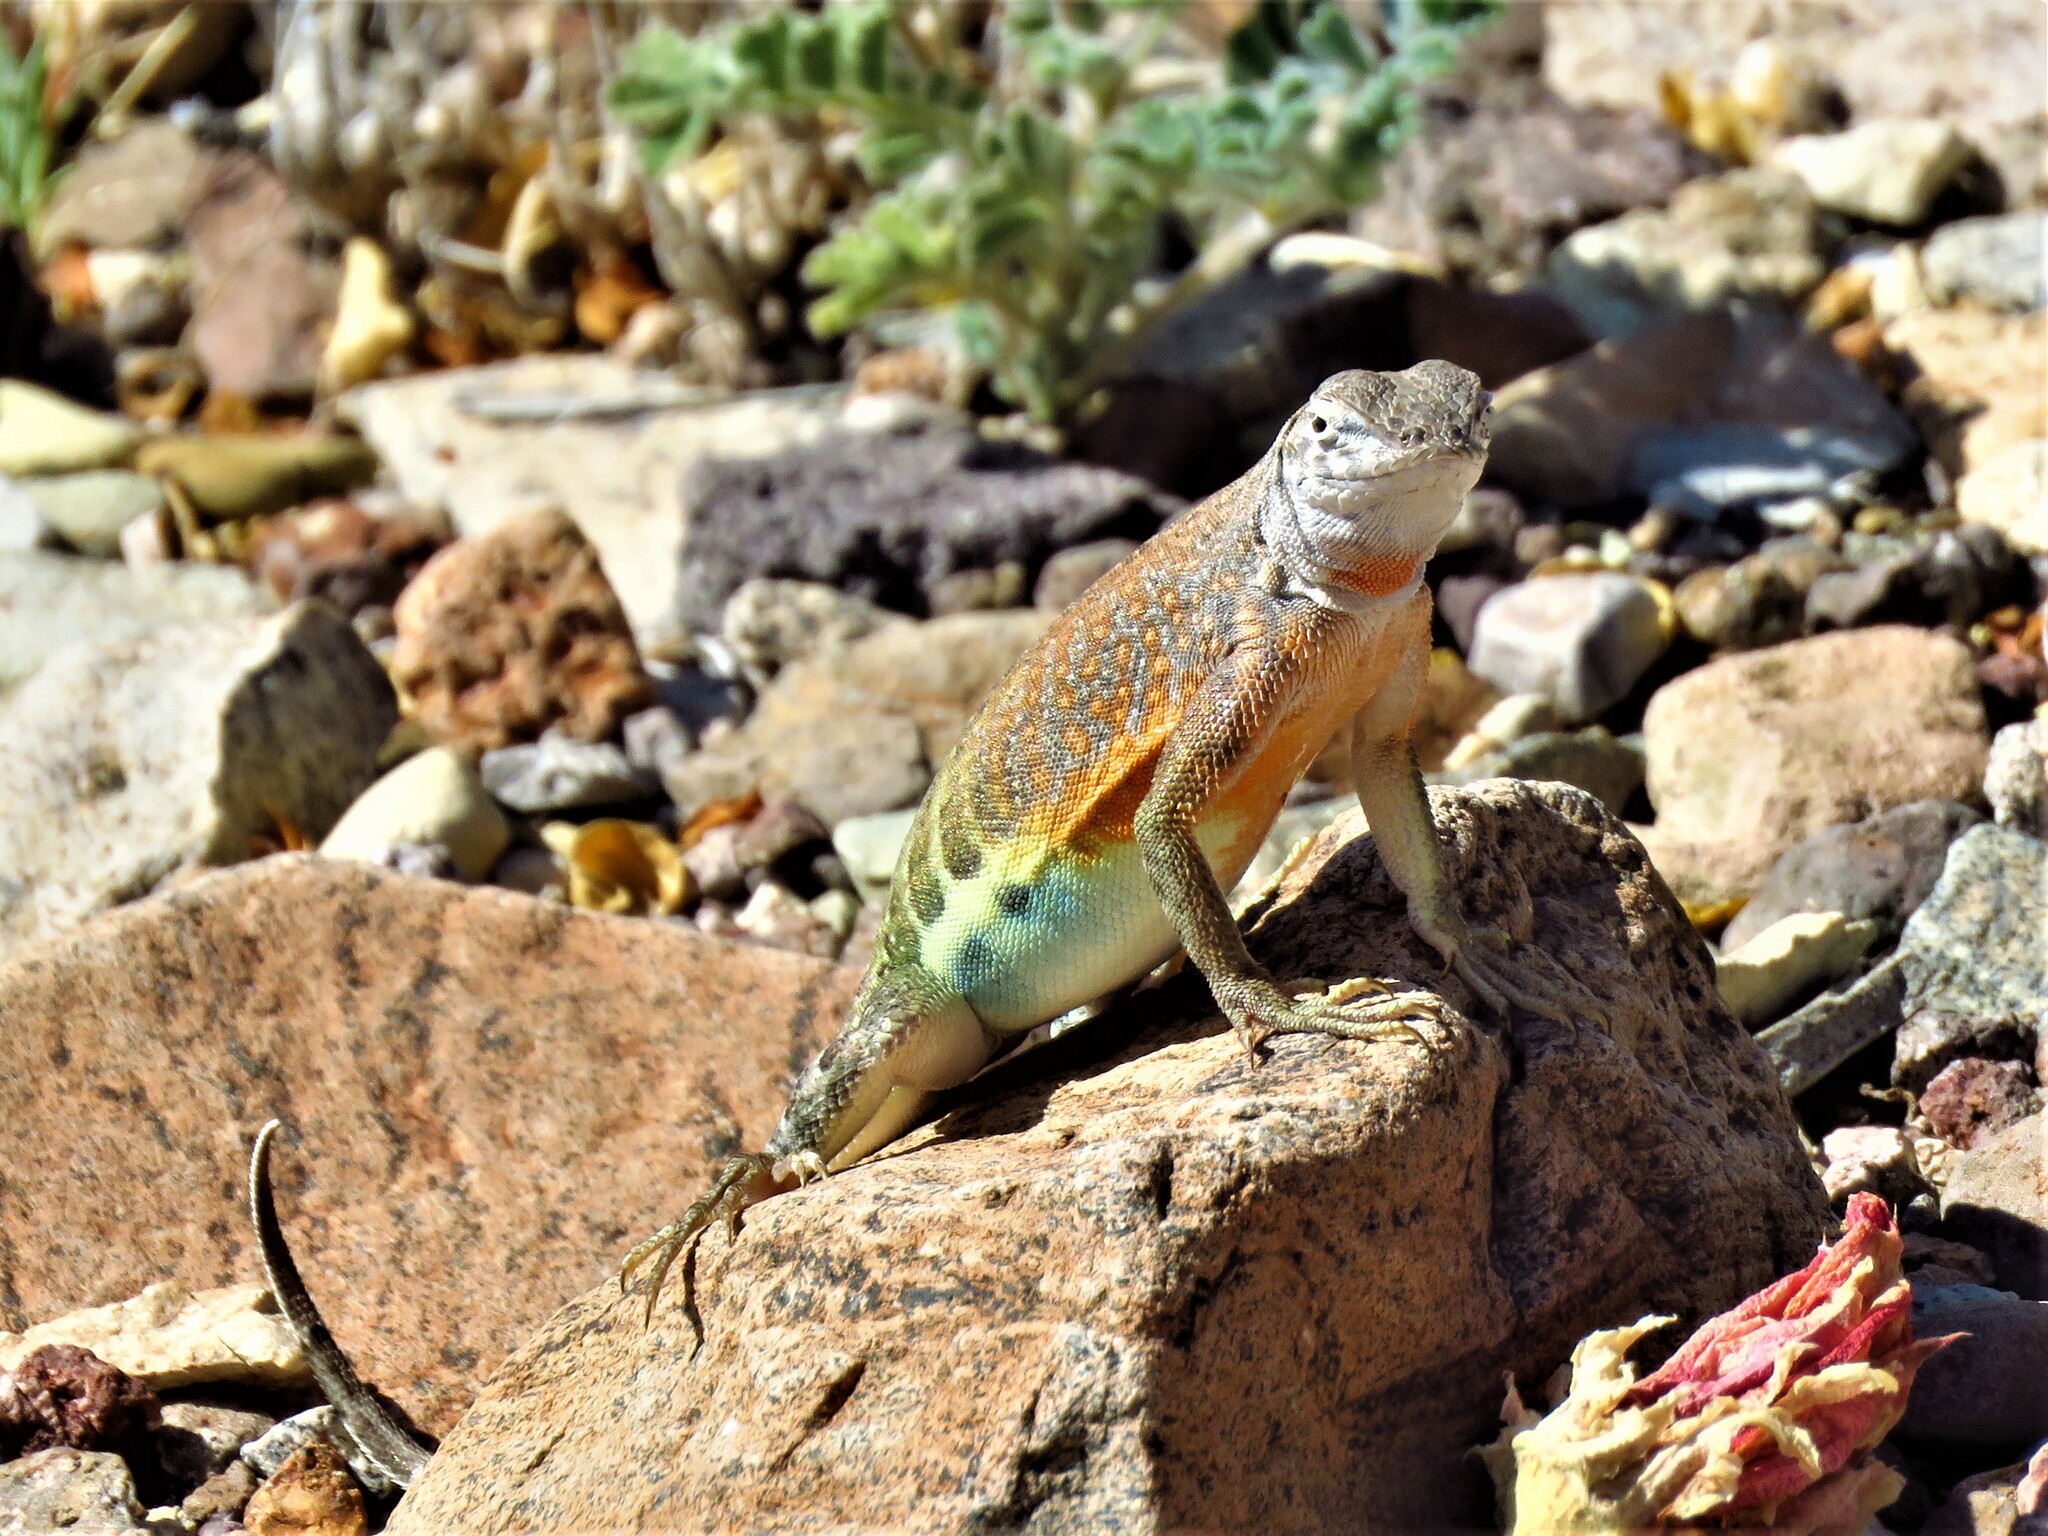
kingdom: Animalia
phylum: Chordata
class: Squamata
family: Phrynosomatidae
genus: Cophosaurus
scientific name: Cophosaurus texanus
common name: Greater earless lizard
